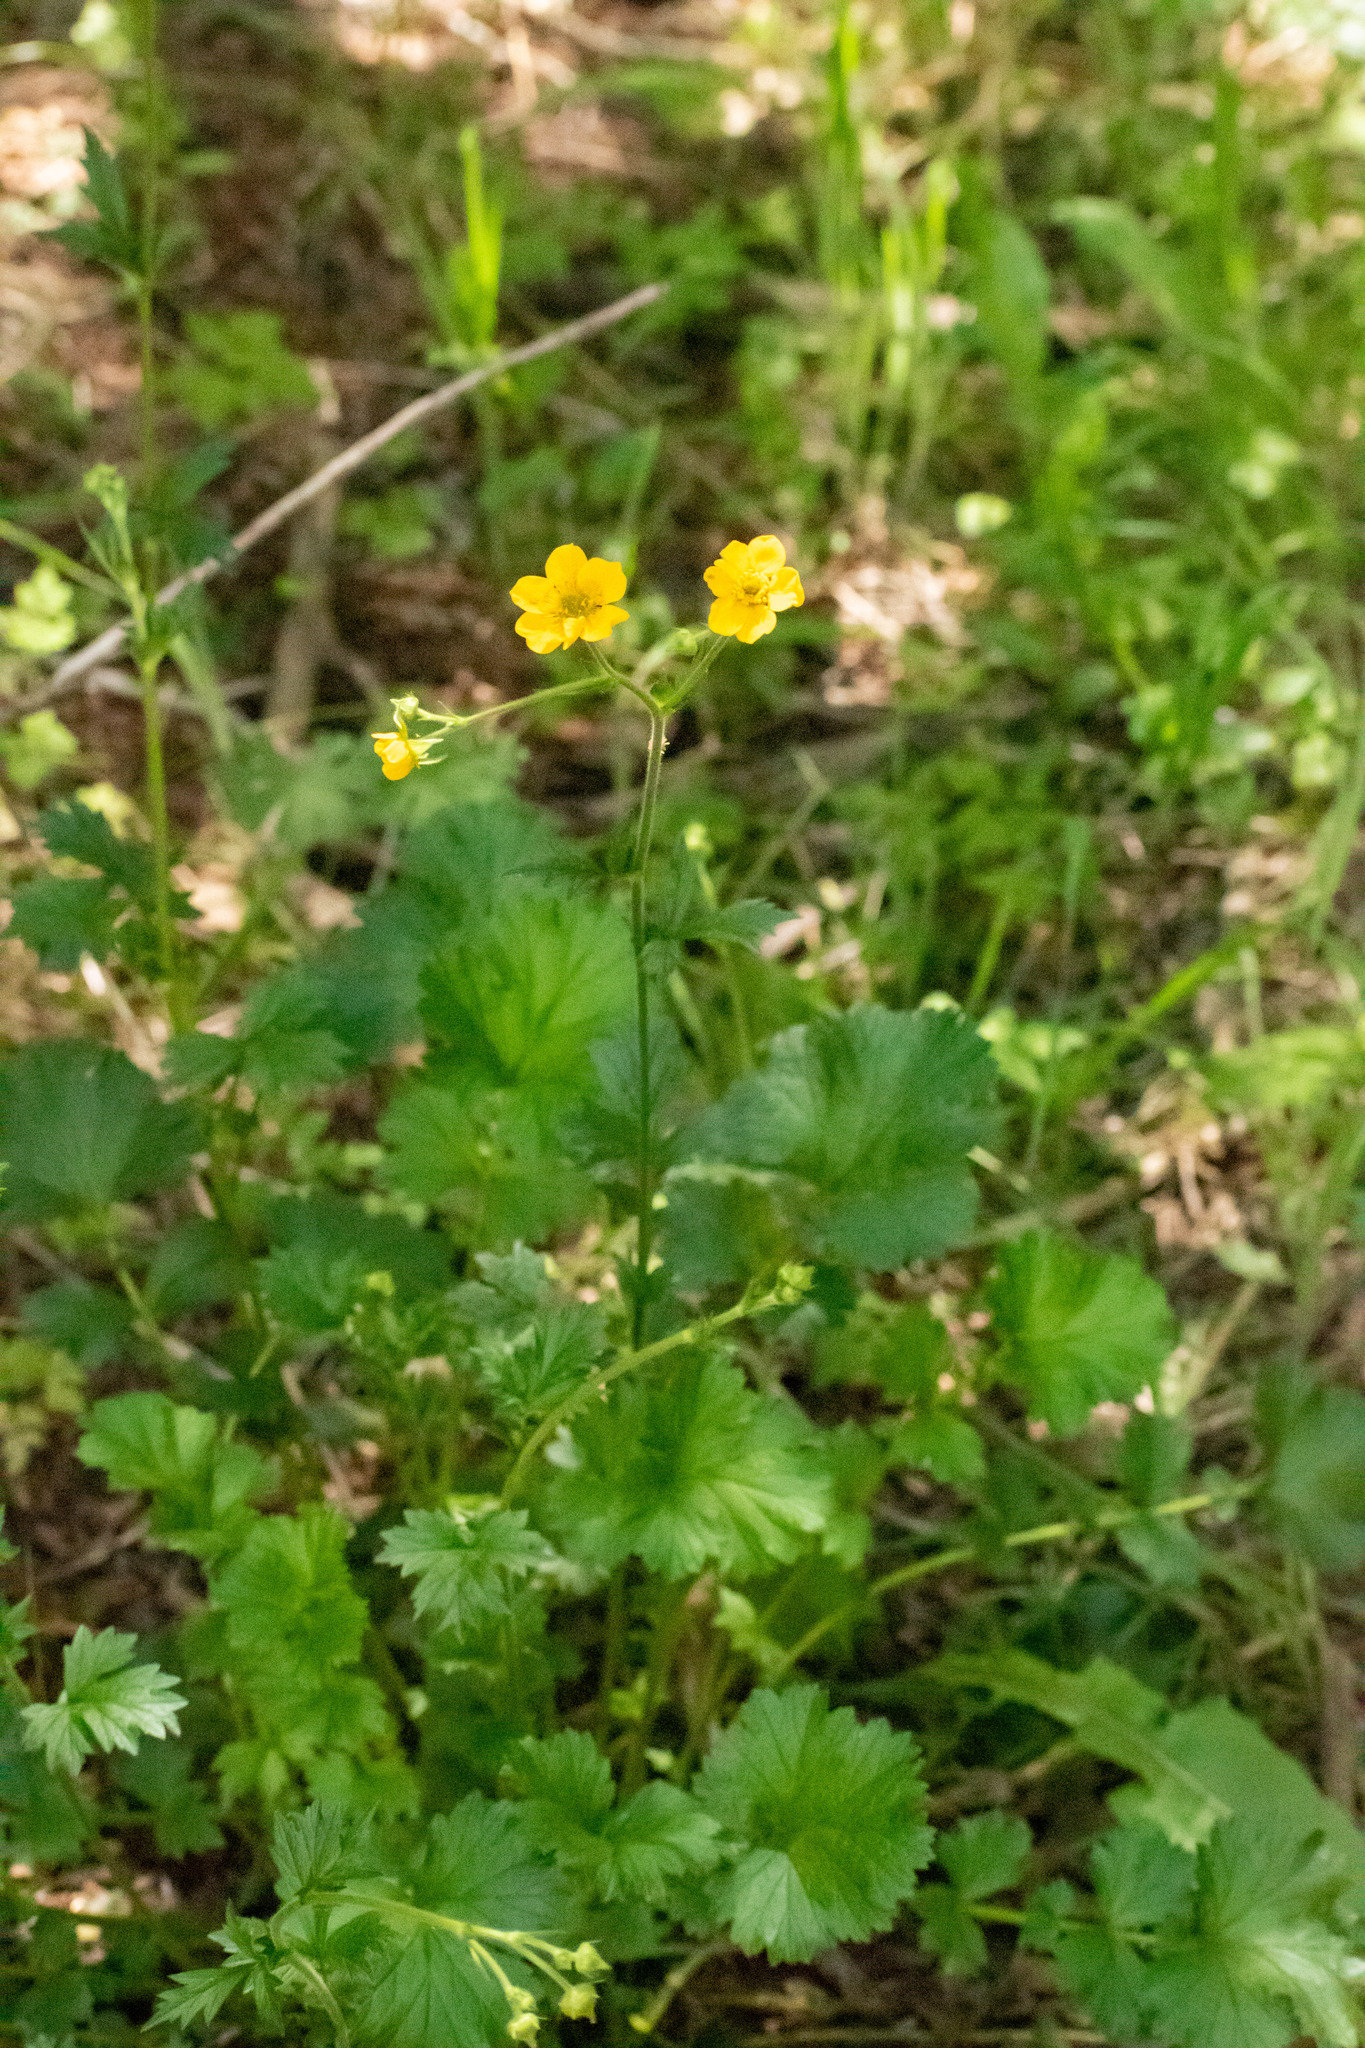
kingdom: Plantae
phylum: Tracheophyta
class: Magnoliopsida
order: Rosales
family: Rosaceae
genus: Geum
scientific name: Geum magellanicum
